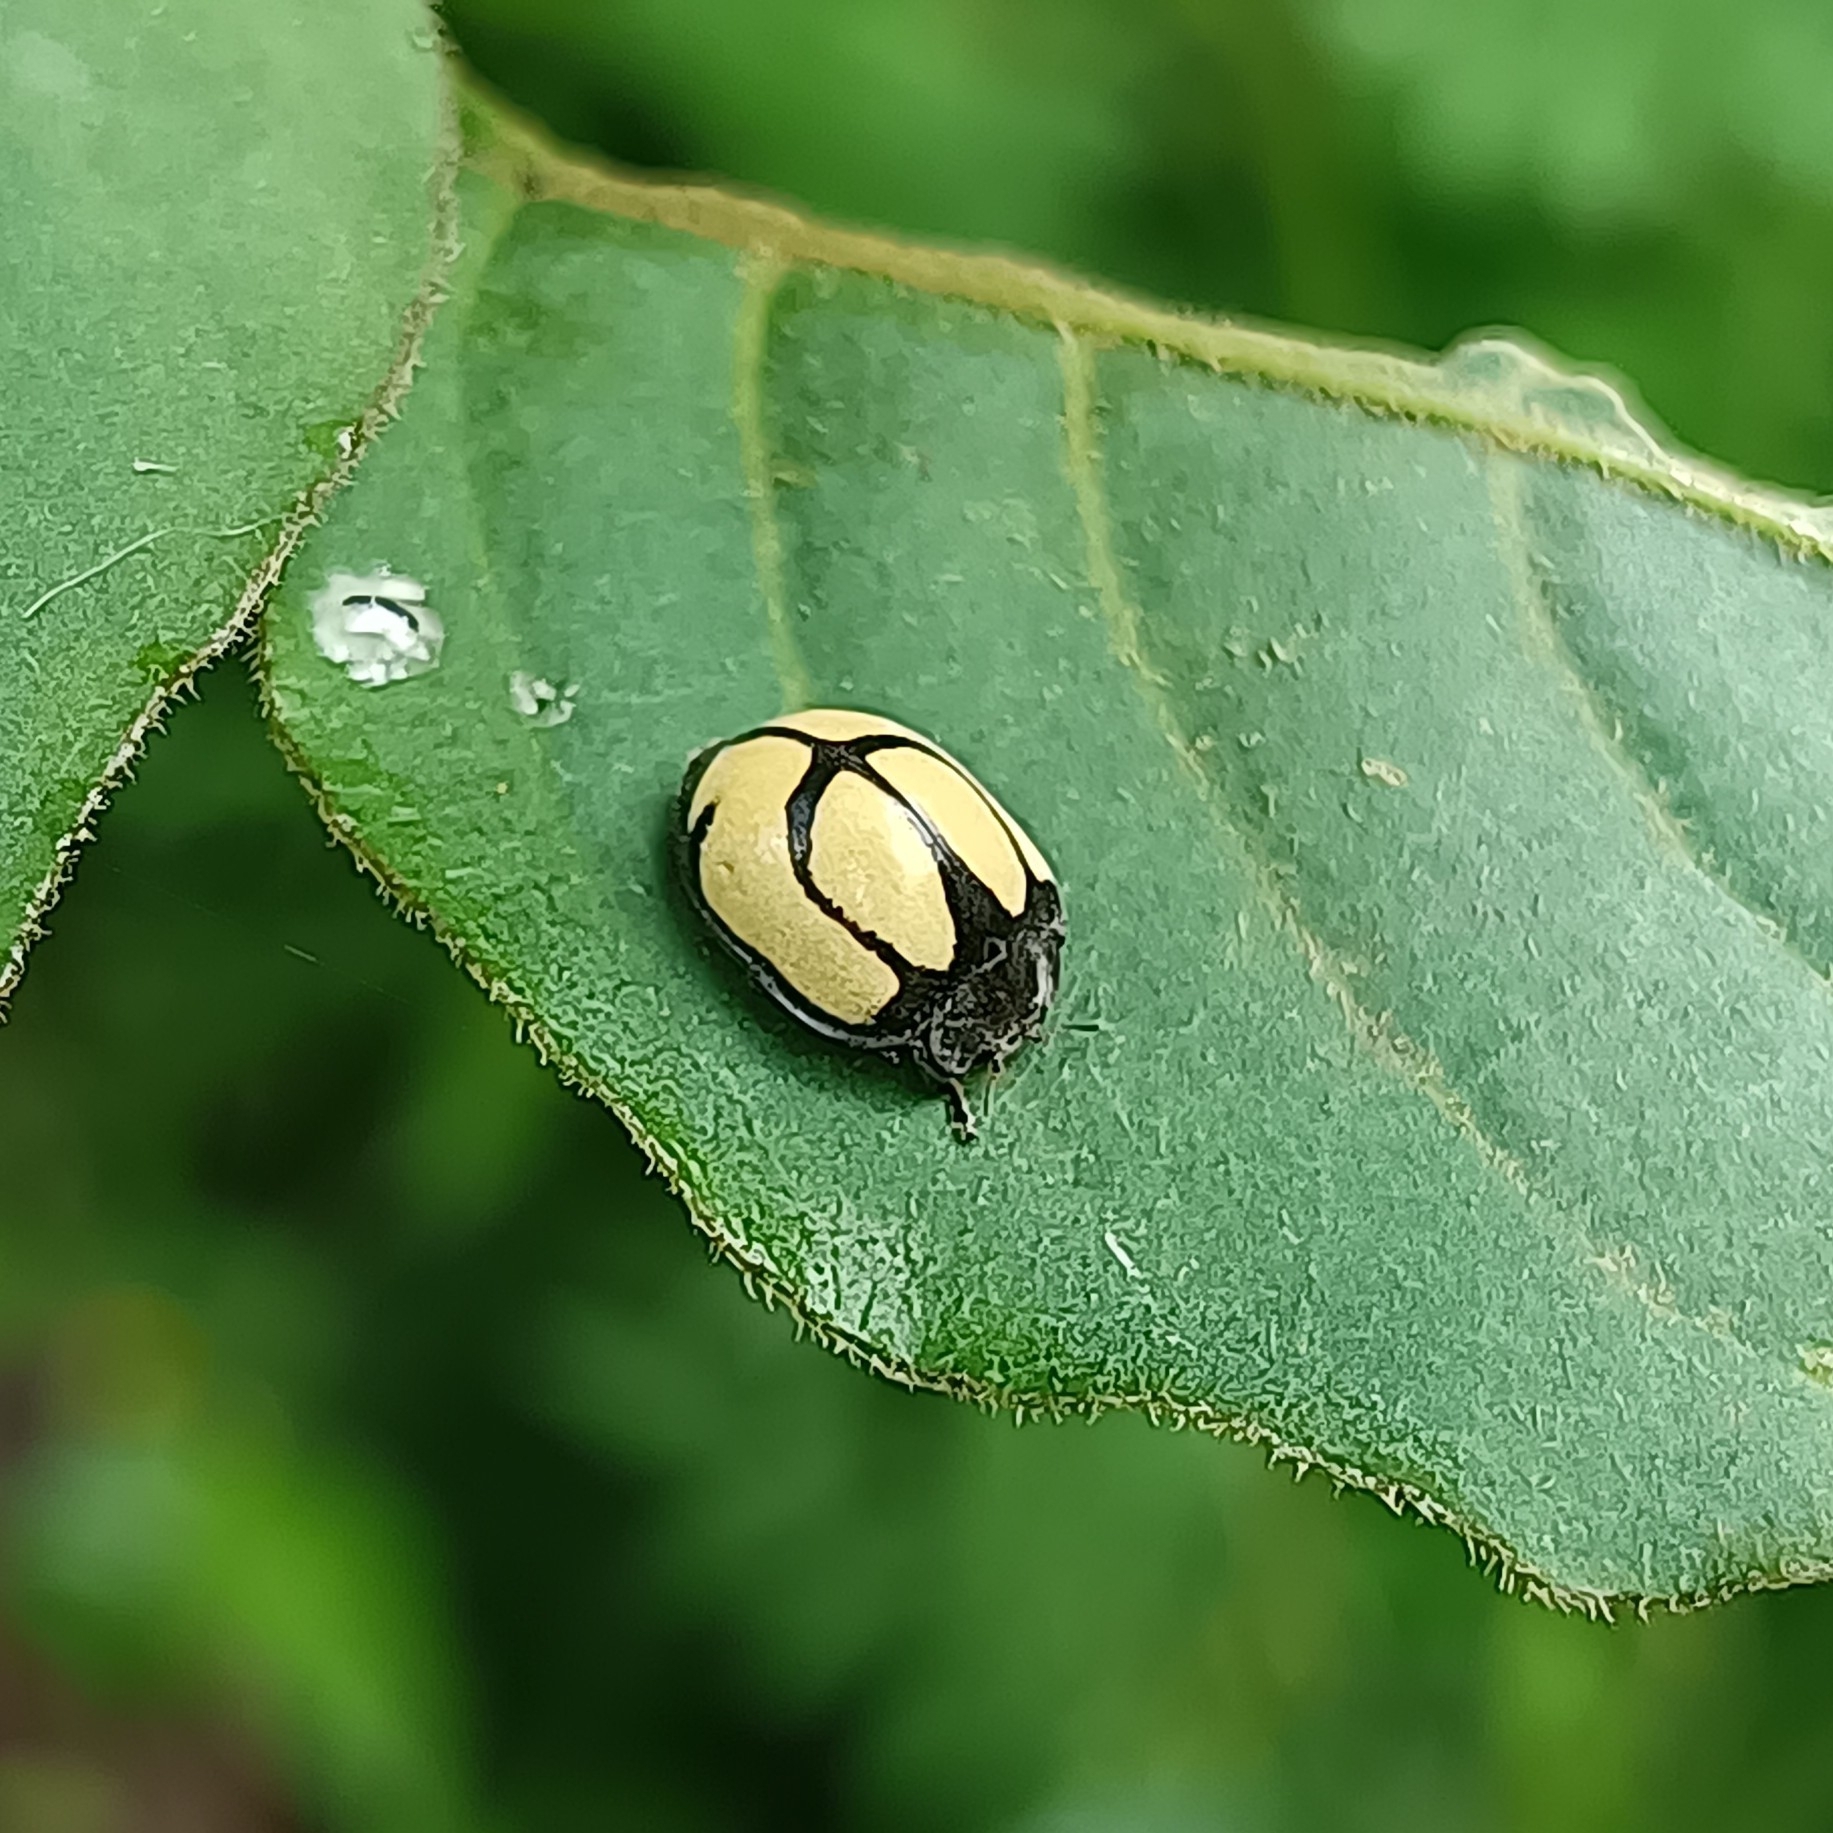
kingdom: Animalia
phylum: Arthropoda
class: Insecta
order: Coleoptera
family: Coccinellidae
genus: Epilachna
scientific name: Epilachna
